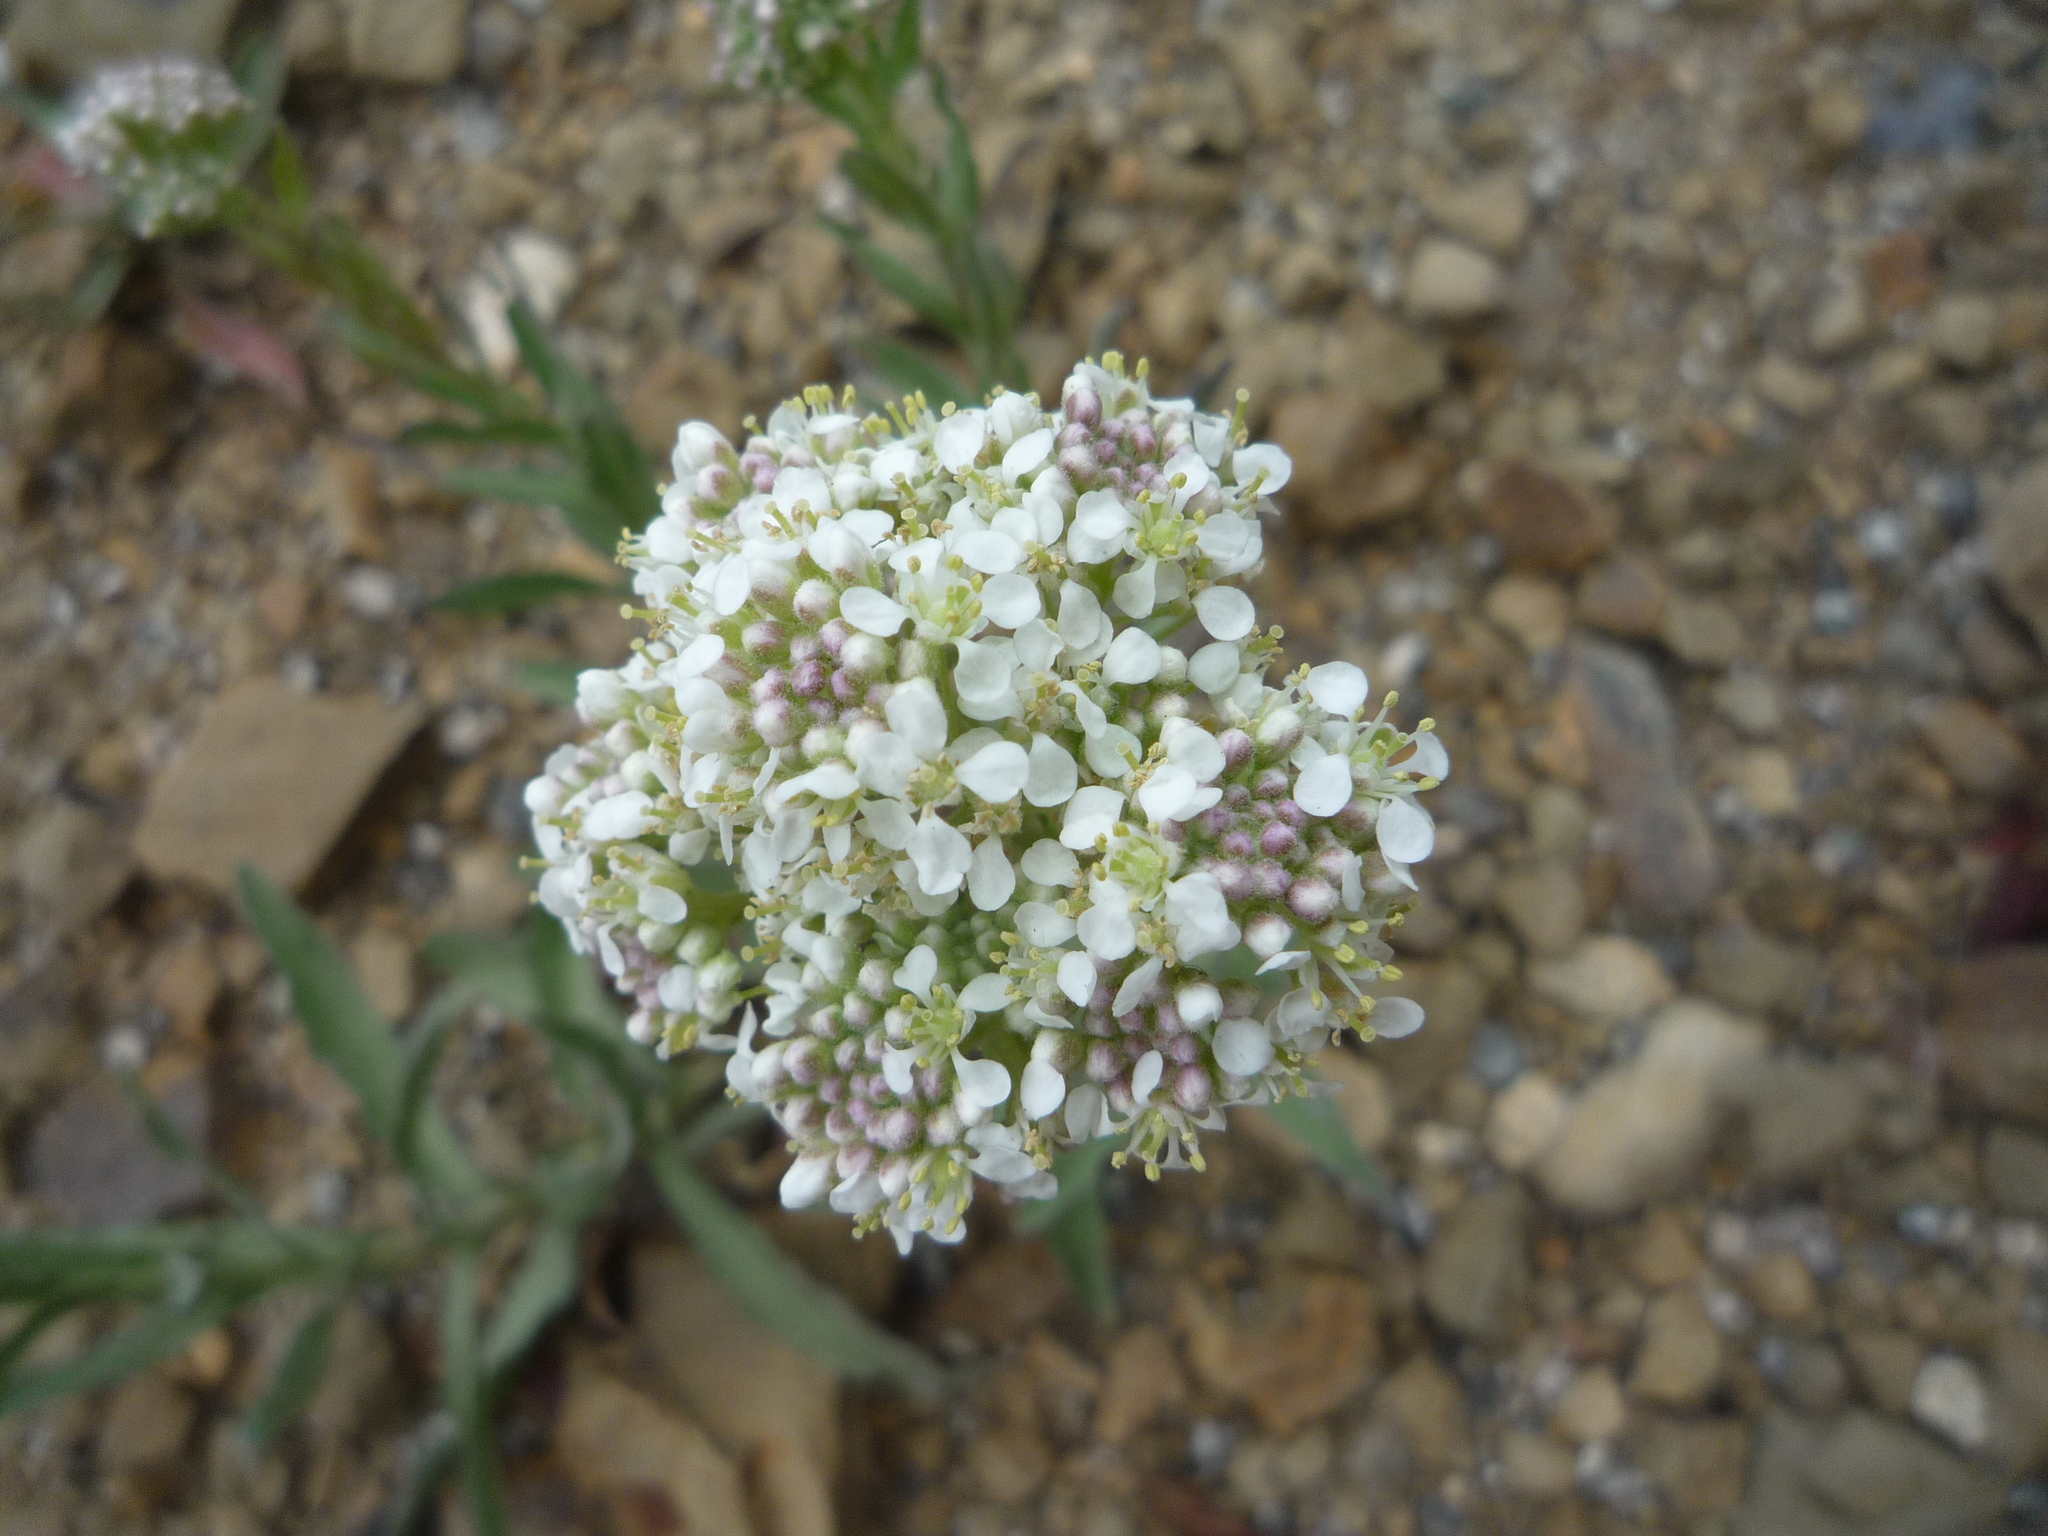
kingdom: Plantae
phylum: Tracheophyta
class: Magnoliopsida
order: Brassicales
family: Brassicaceae
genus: Lepidium
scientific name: Lepidium appelianum
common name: Hairy whitetop
